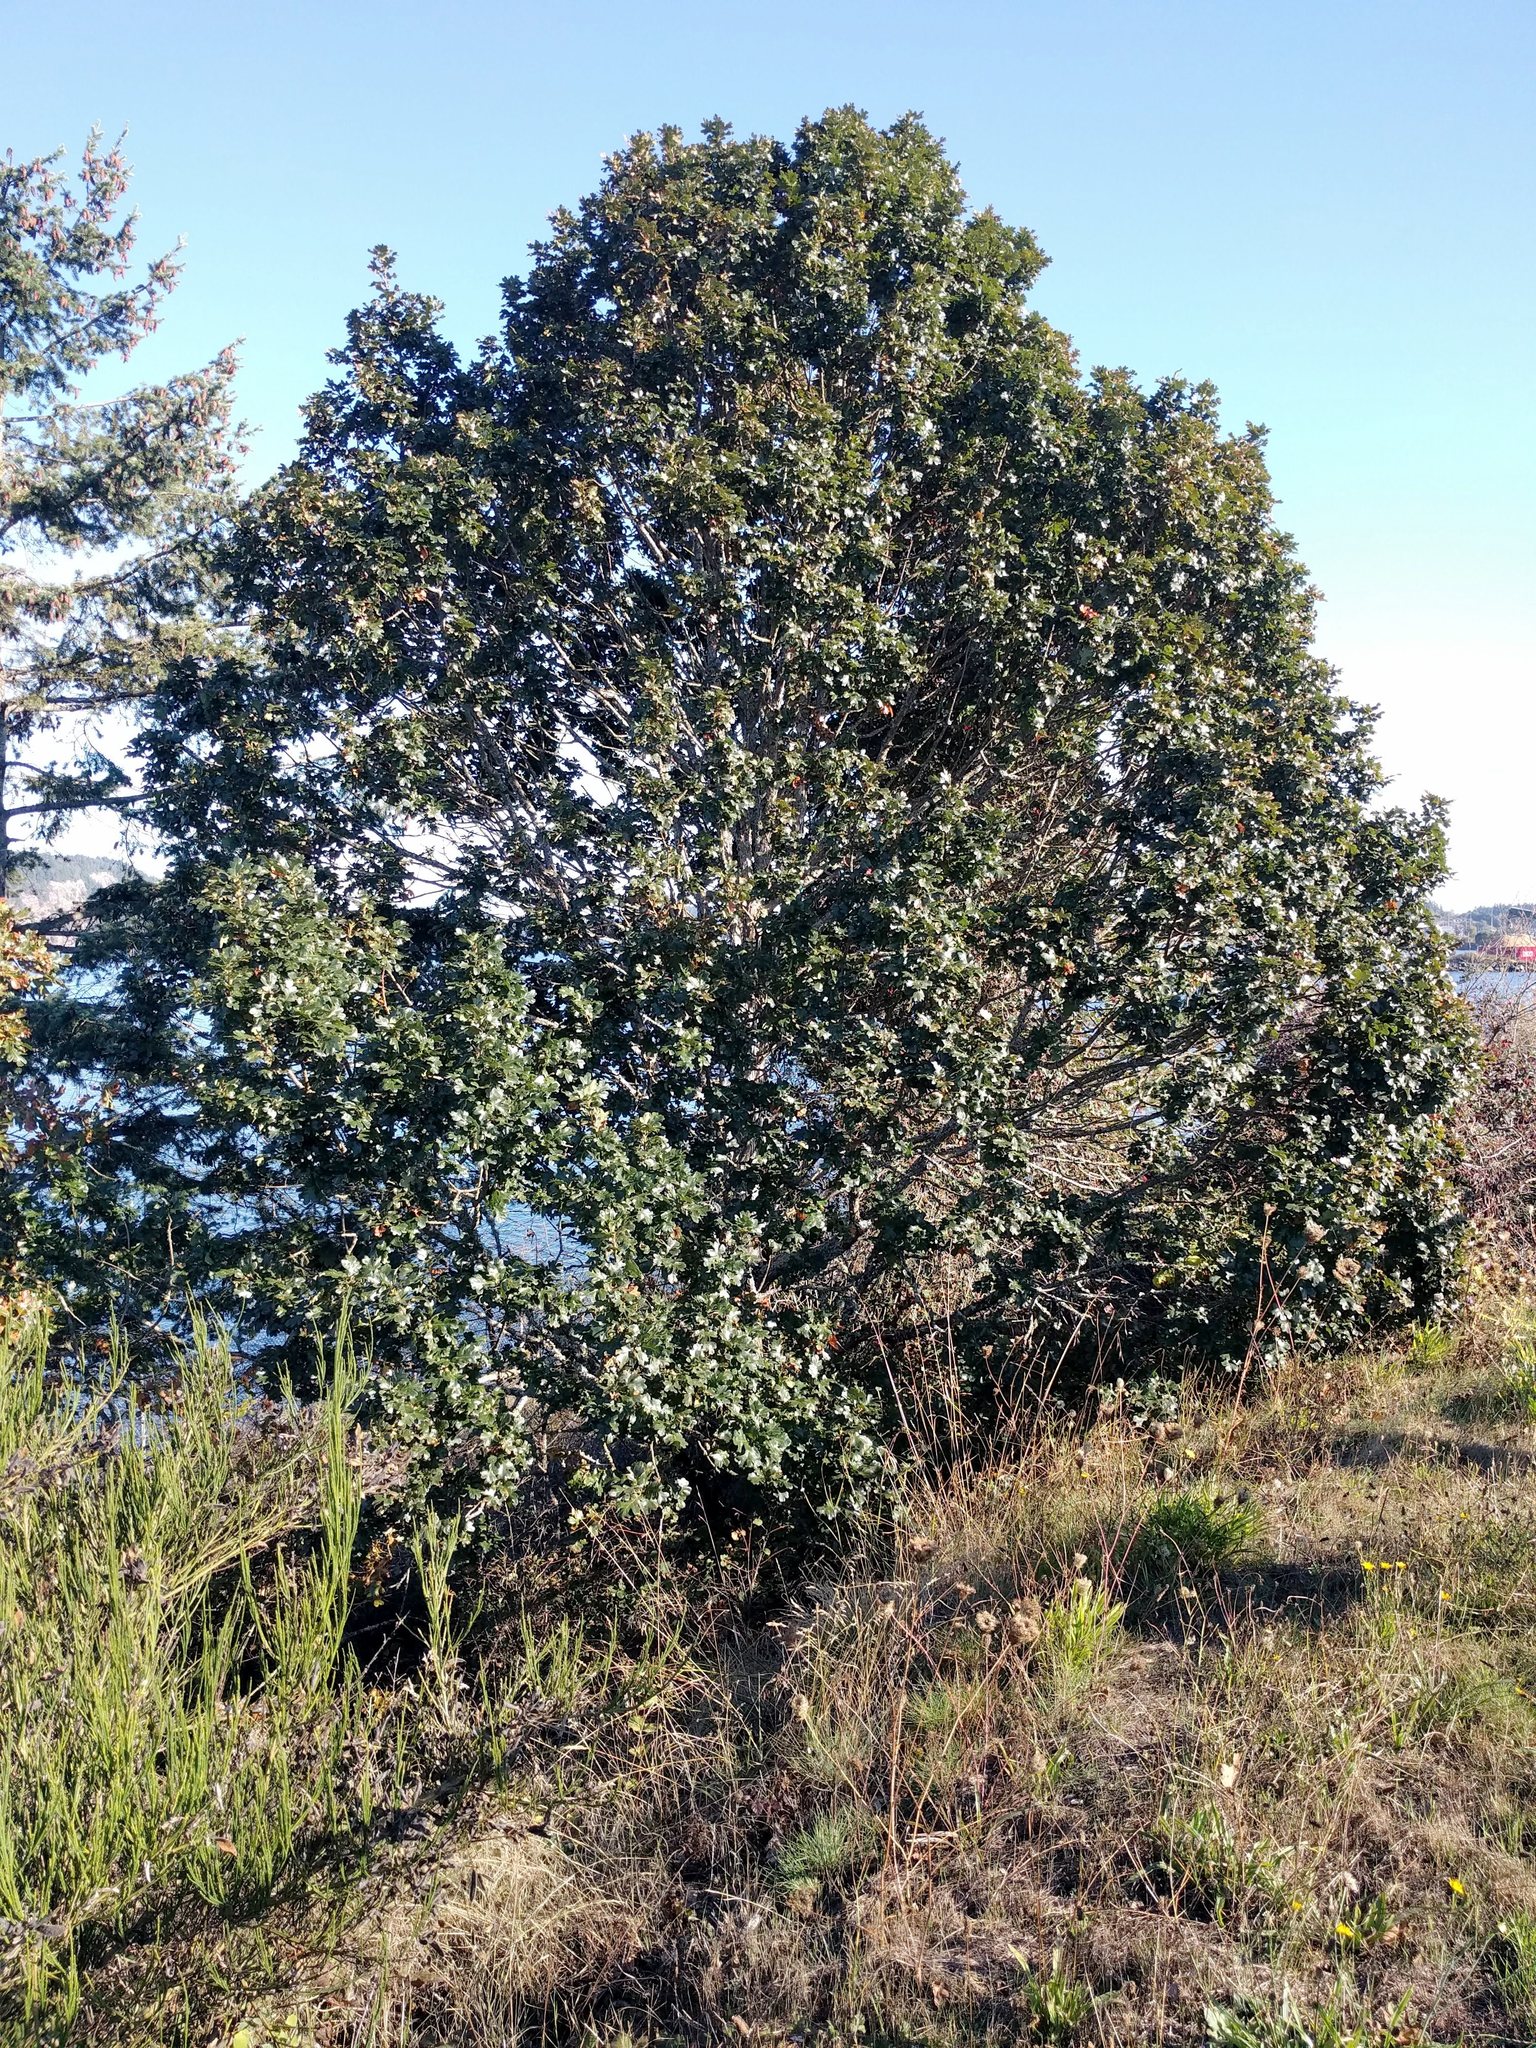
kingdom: Plantae
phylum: Tracheophyta
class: Magnoliopsida
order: Fagales
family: Fagaceae
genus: Quercus
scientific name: Quercus garryana
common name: Garry oak
